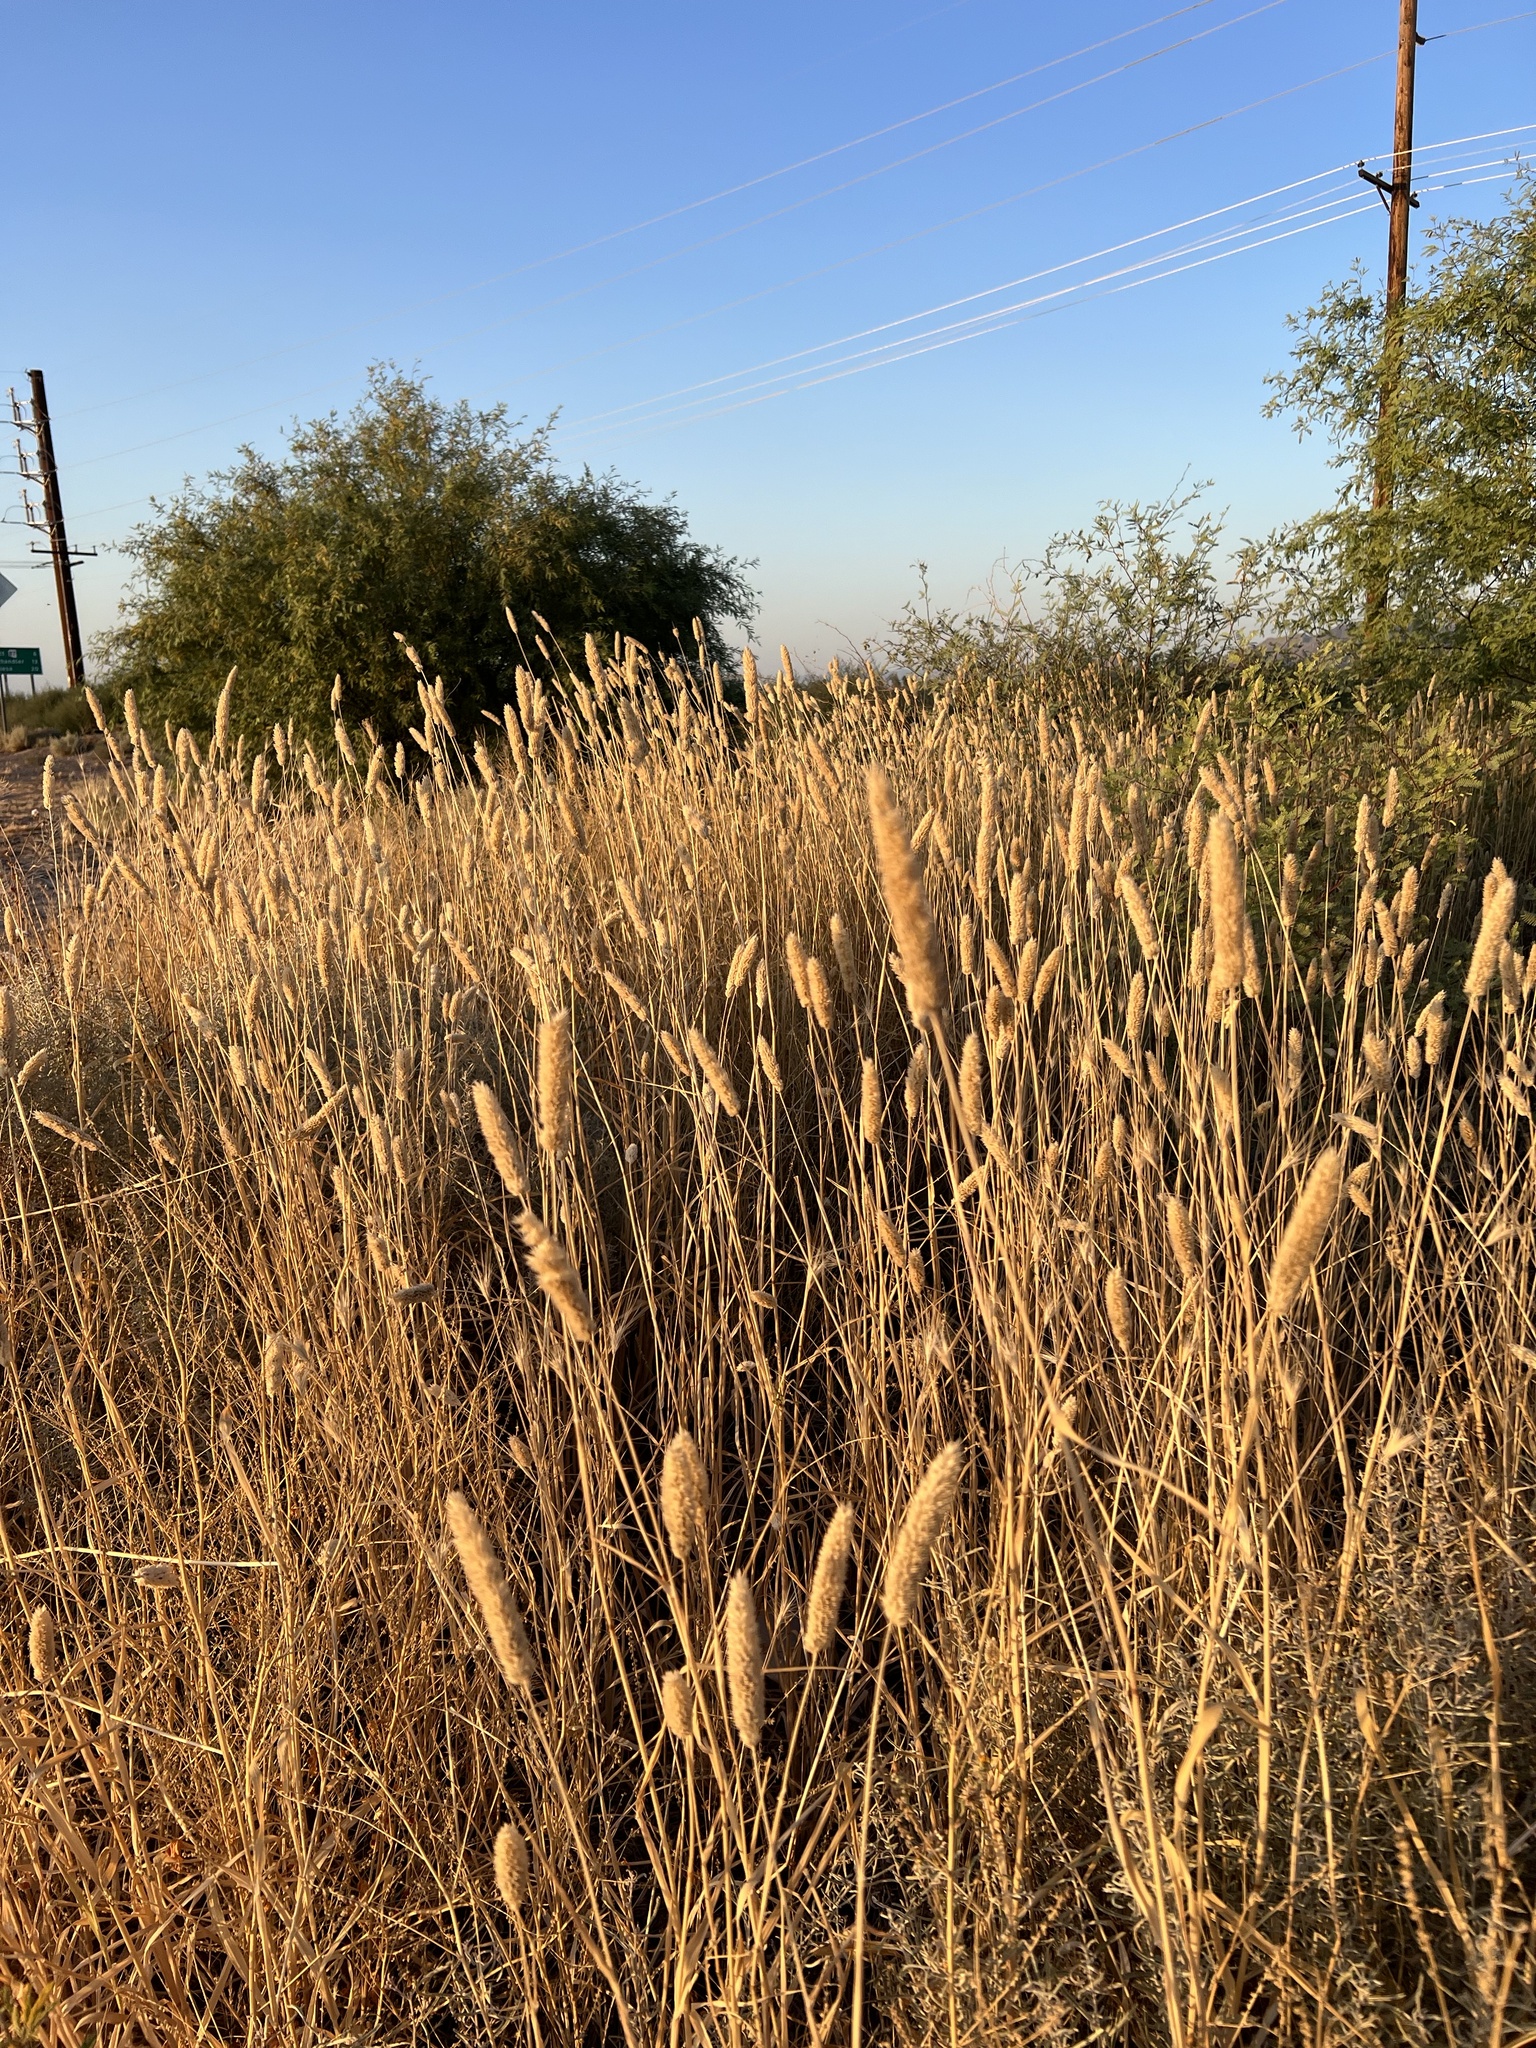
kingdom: Plantae
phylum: Tracheophyta
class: Liliopsida
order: Poales
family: Poaceae
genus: Polypogon
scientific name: Polypogon monspeliensis
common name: Annual rabbitsfoot grass
